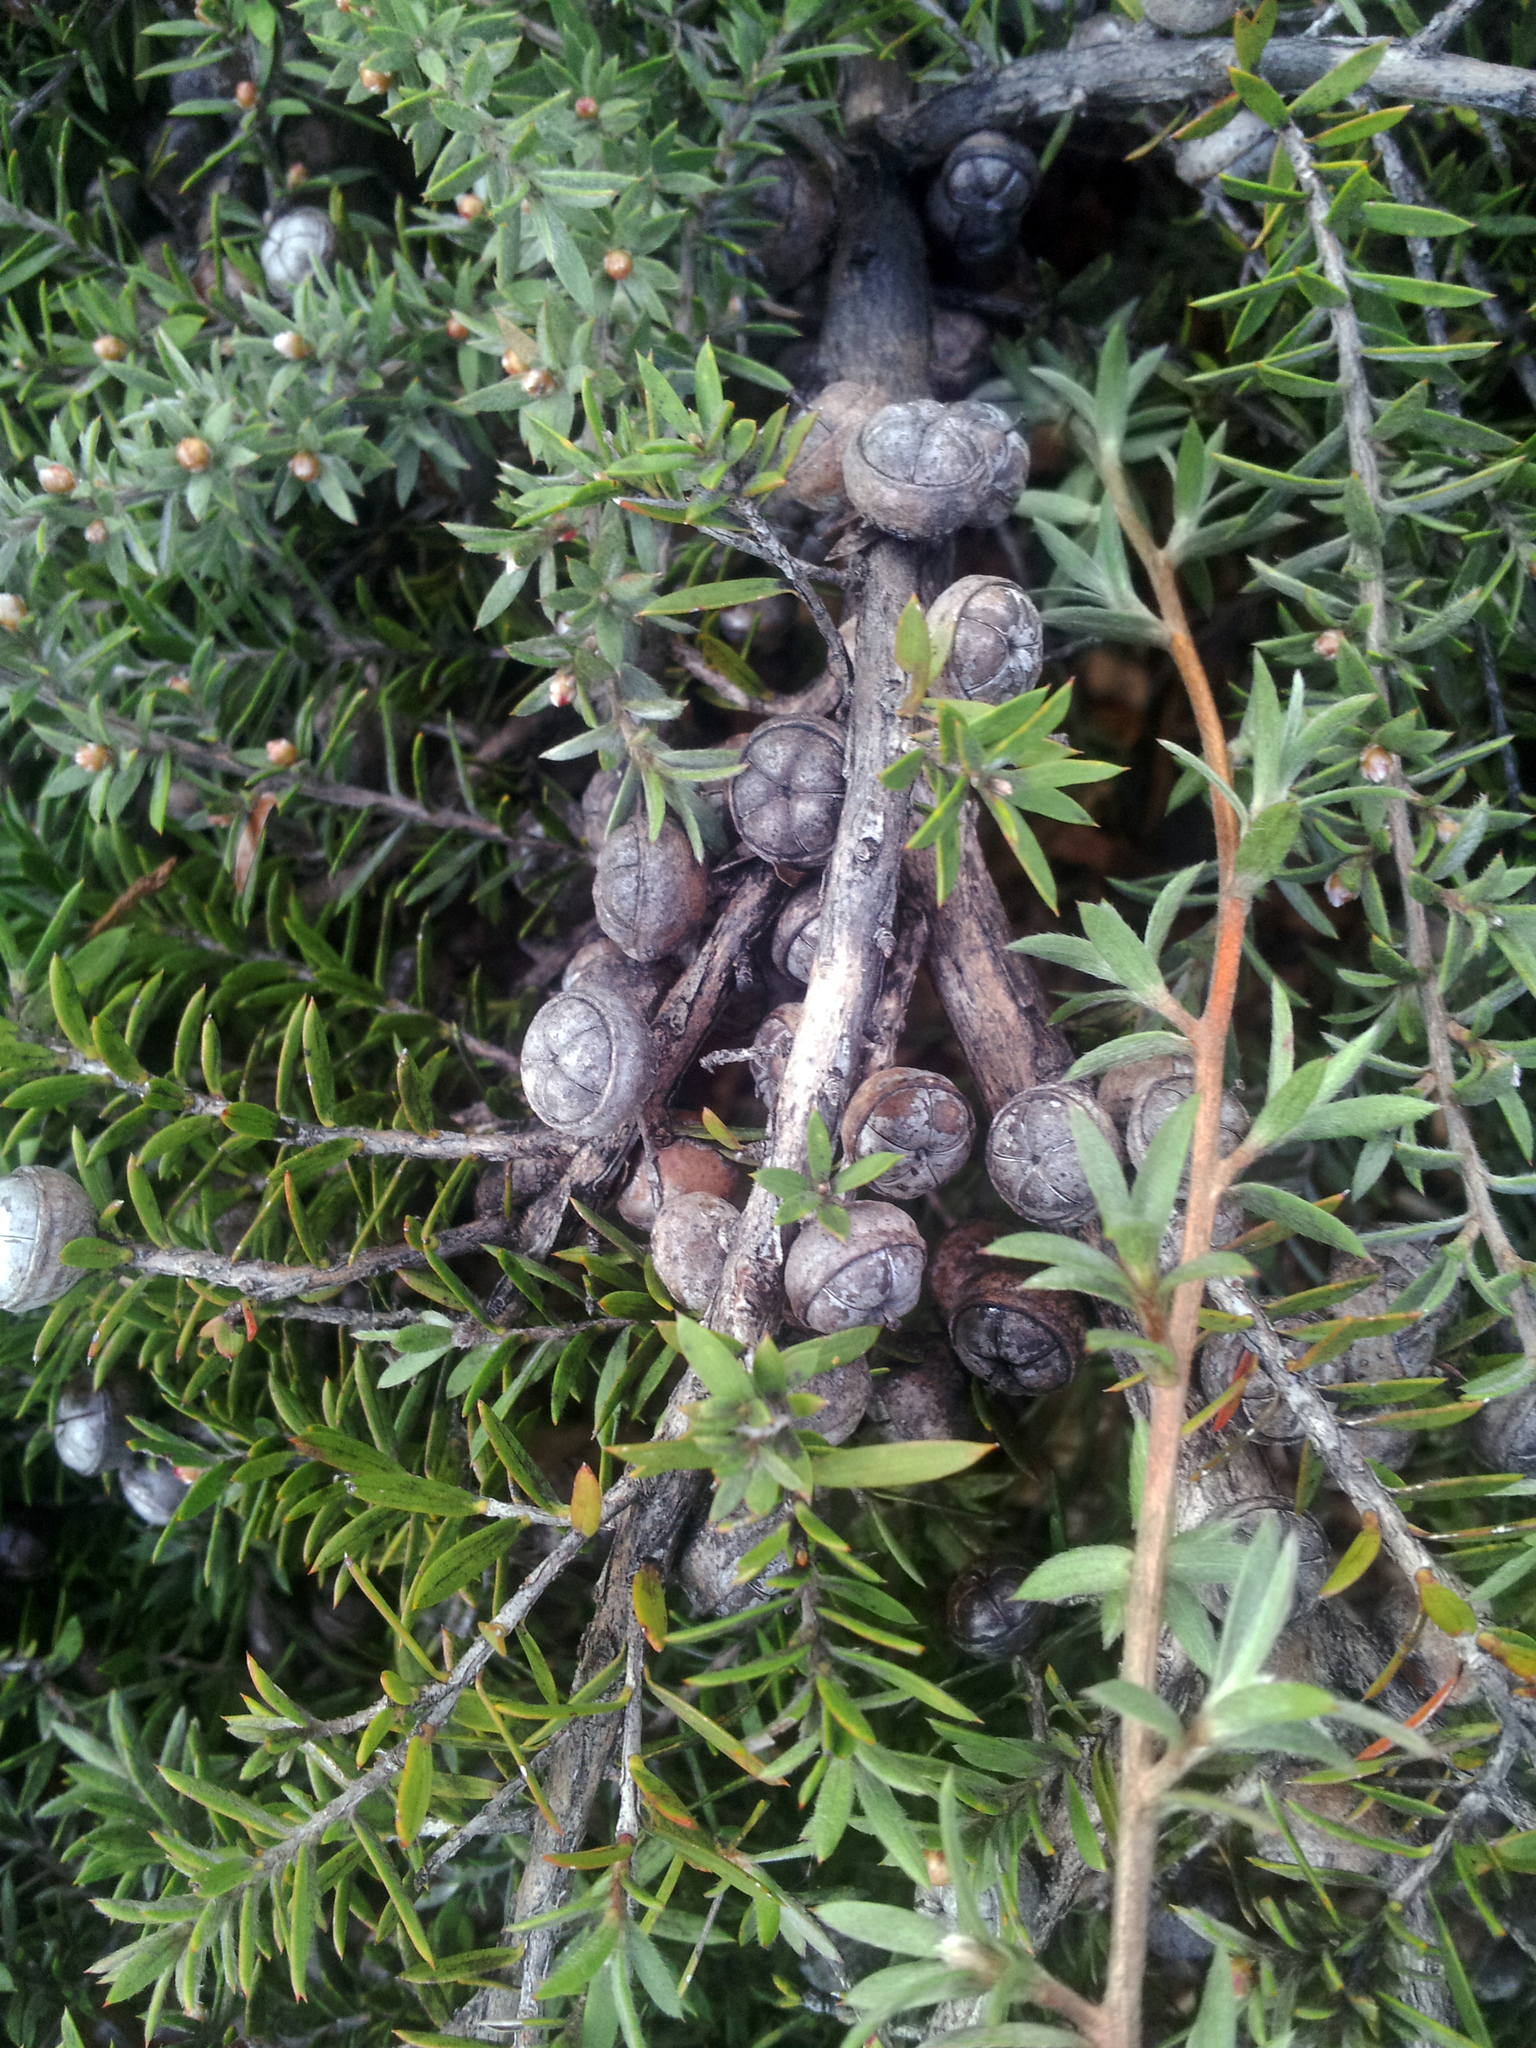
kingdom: Plantae
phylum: Tracheophyta
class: Magnoliopsida
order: Myrtales
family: Myrtaceae
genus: Leptospermum
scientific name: Leptospermum scoparium
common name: Broom tea-tree
